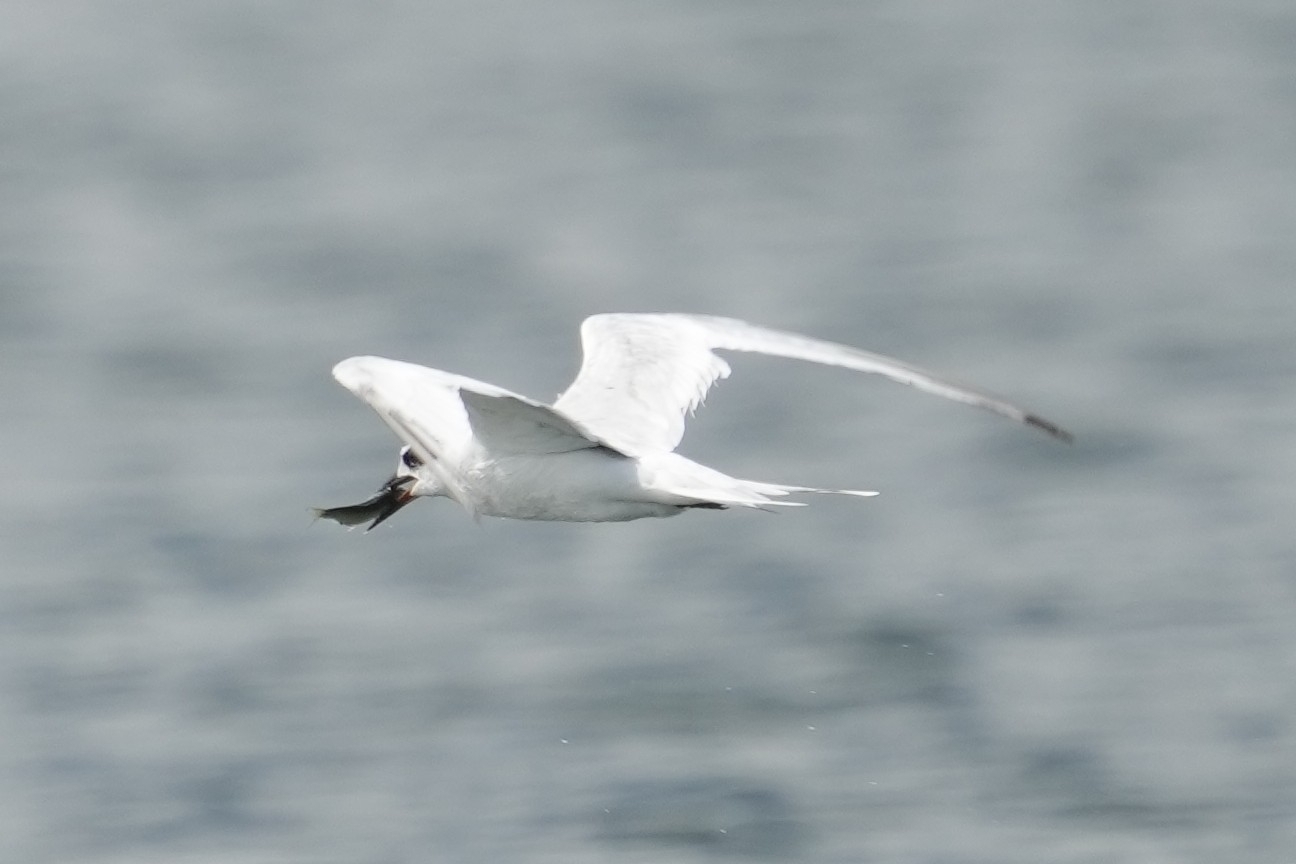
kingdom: Animalia
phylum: Chordata
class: Aves
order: Charadriiformes
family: Laridae
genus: Sterna
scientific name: Sterna forsteri
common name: Forster's tern
